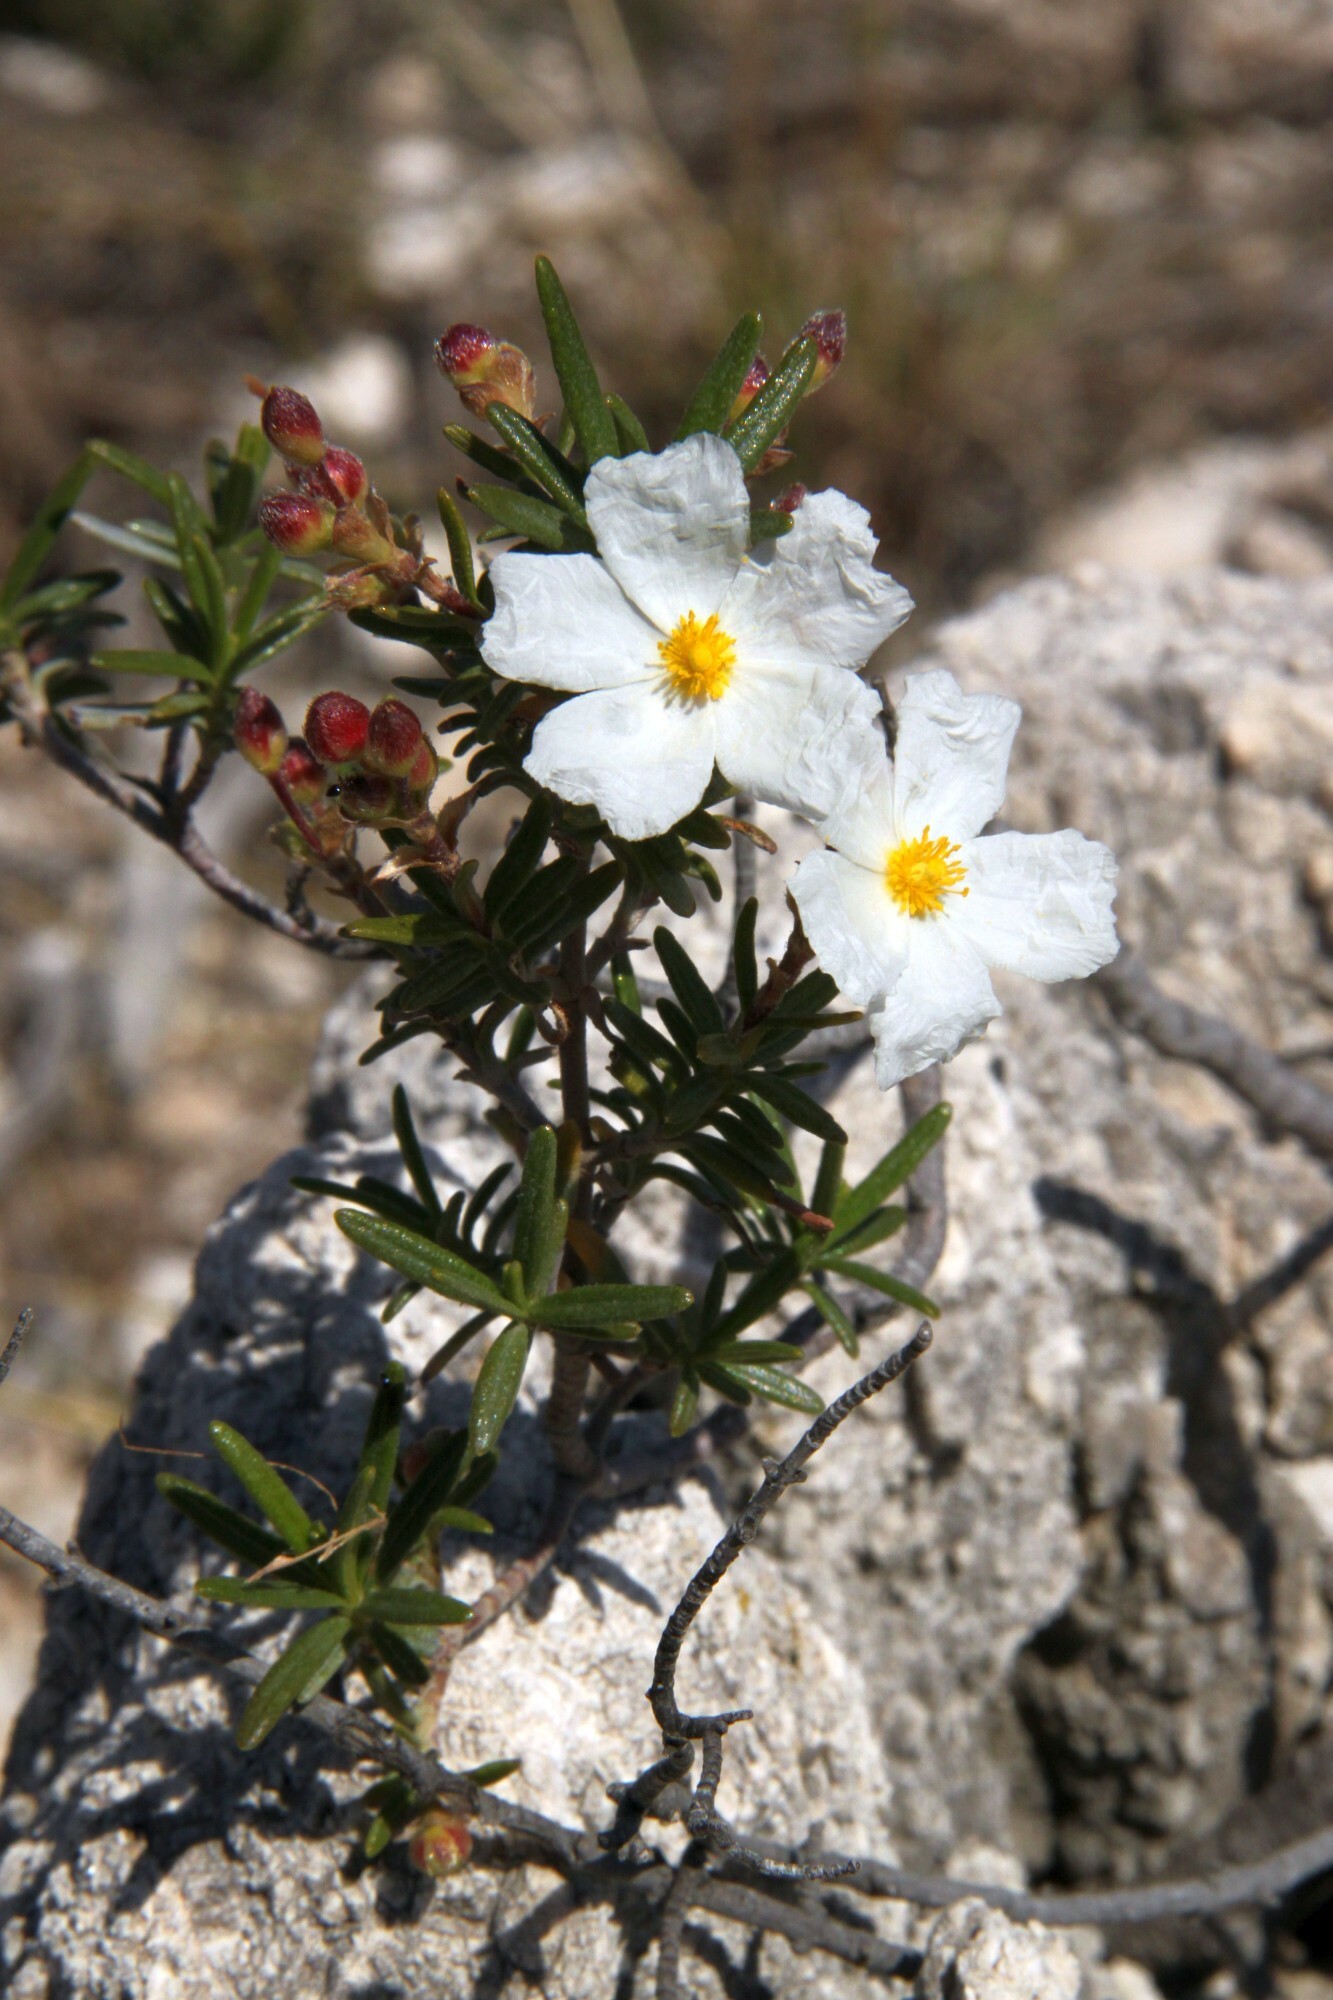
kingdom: Plantae
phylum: Tracheophyta
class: Magnoliopsida
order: Malvales
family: Cistaceae
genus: Cistus
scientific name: Cistus clusii
